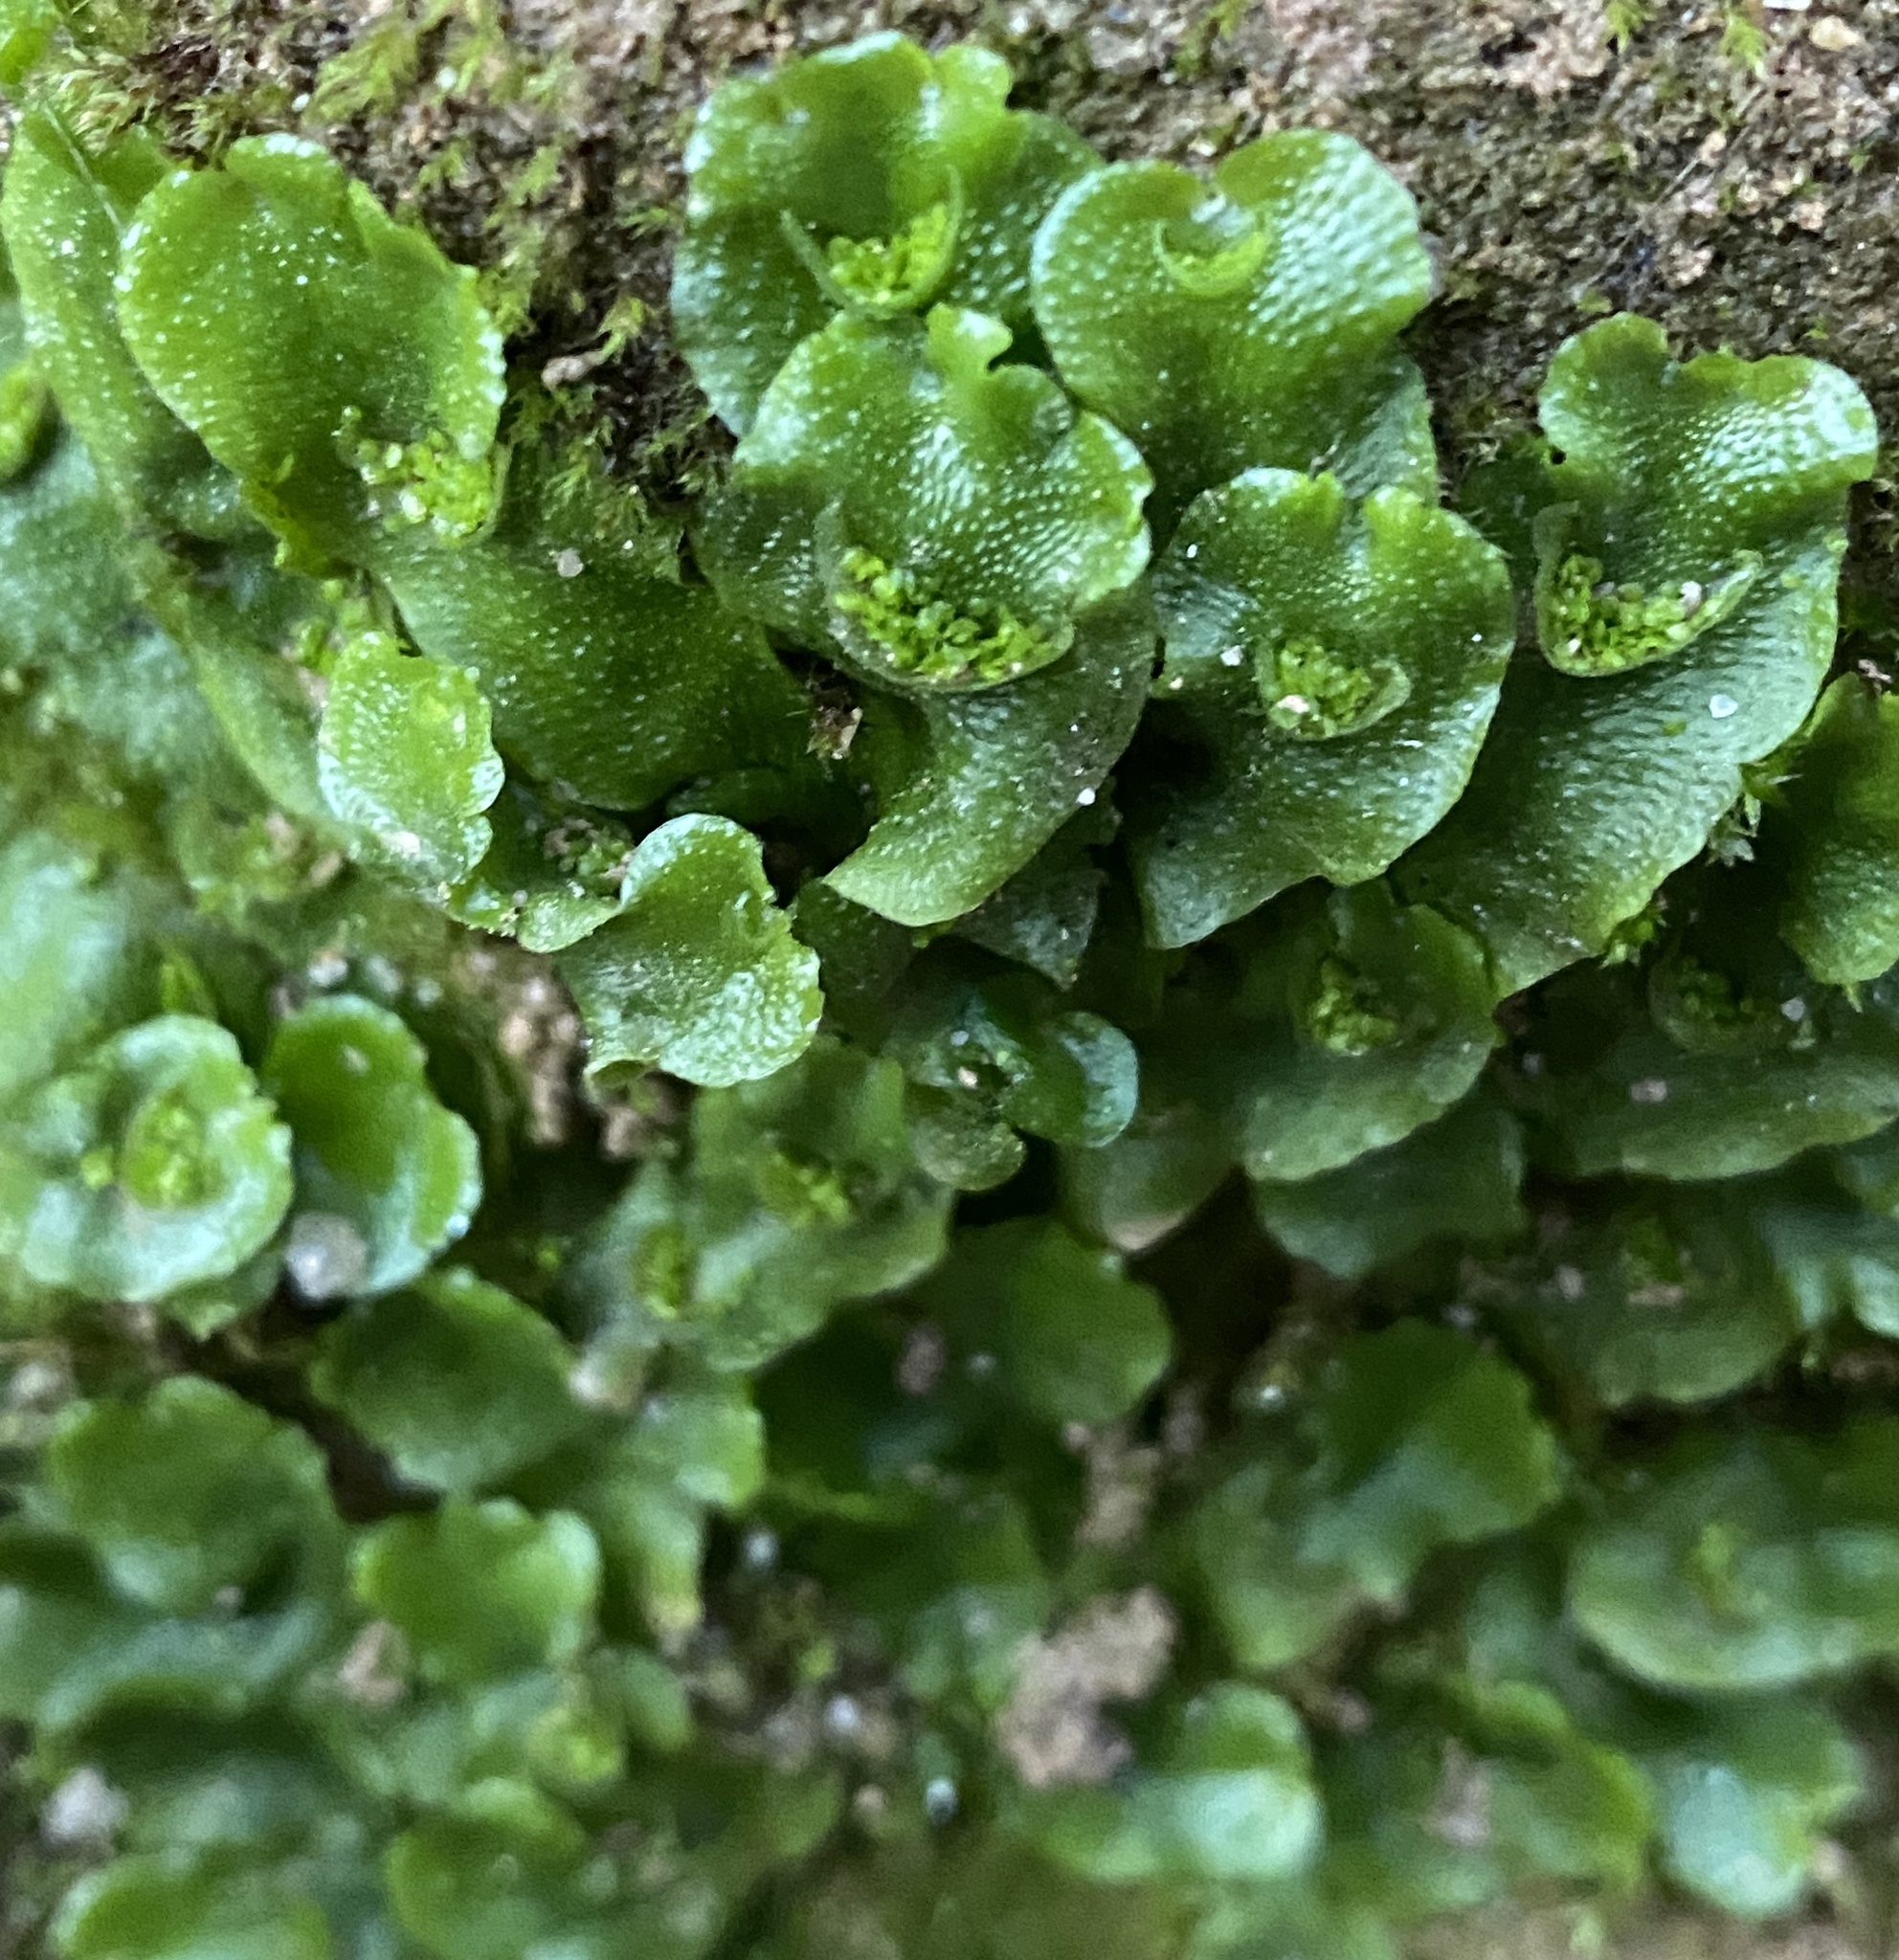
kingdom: Plantae
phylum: Marchantiophyta
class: Marchantiopsida
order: Lunulariales
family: Lunulariaceae
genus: Lunularia
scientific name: Lunularia cruciata
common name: Crescent-cup liverwort
